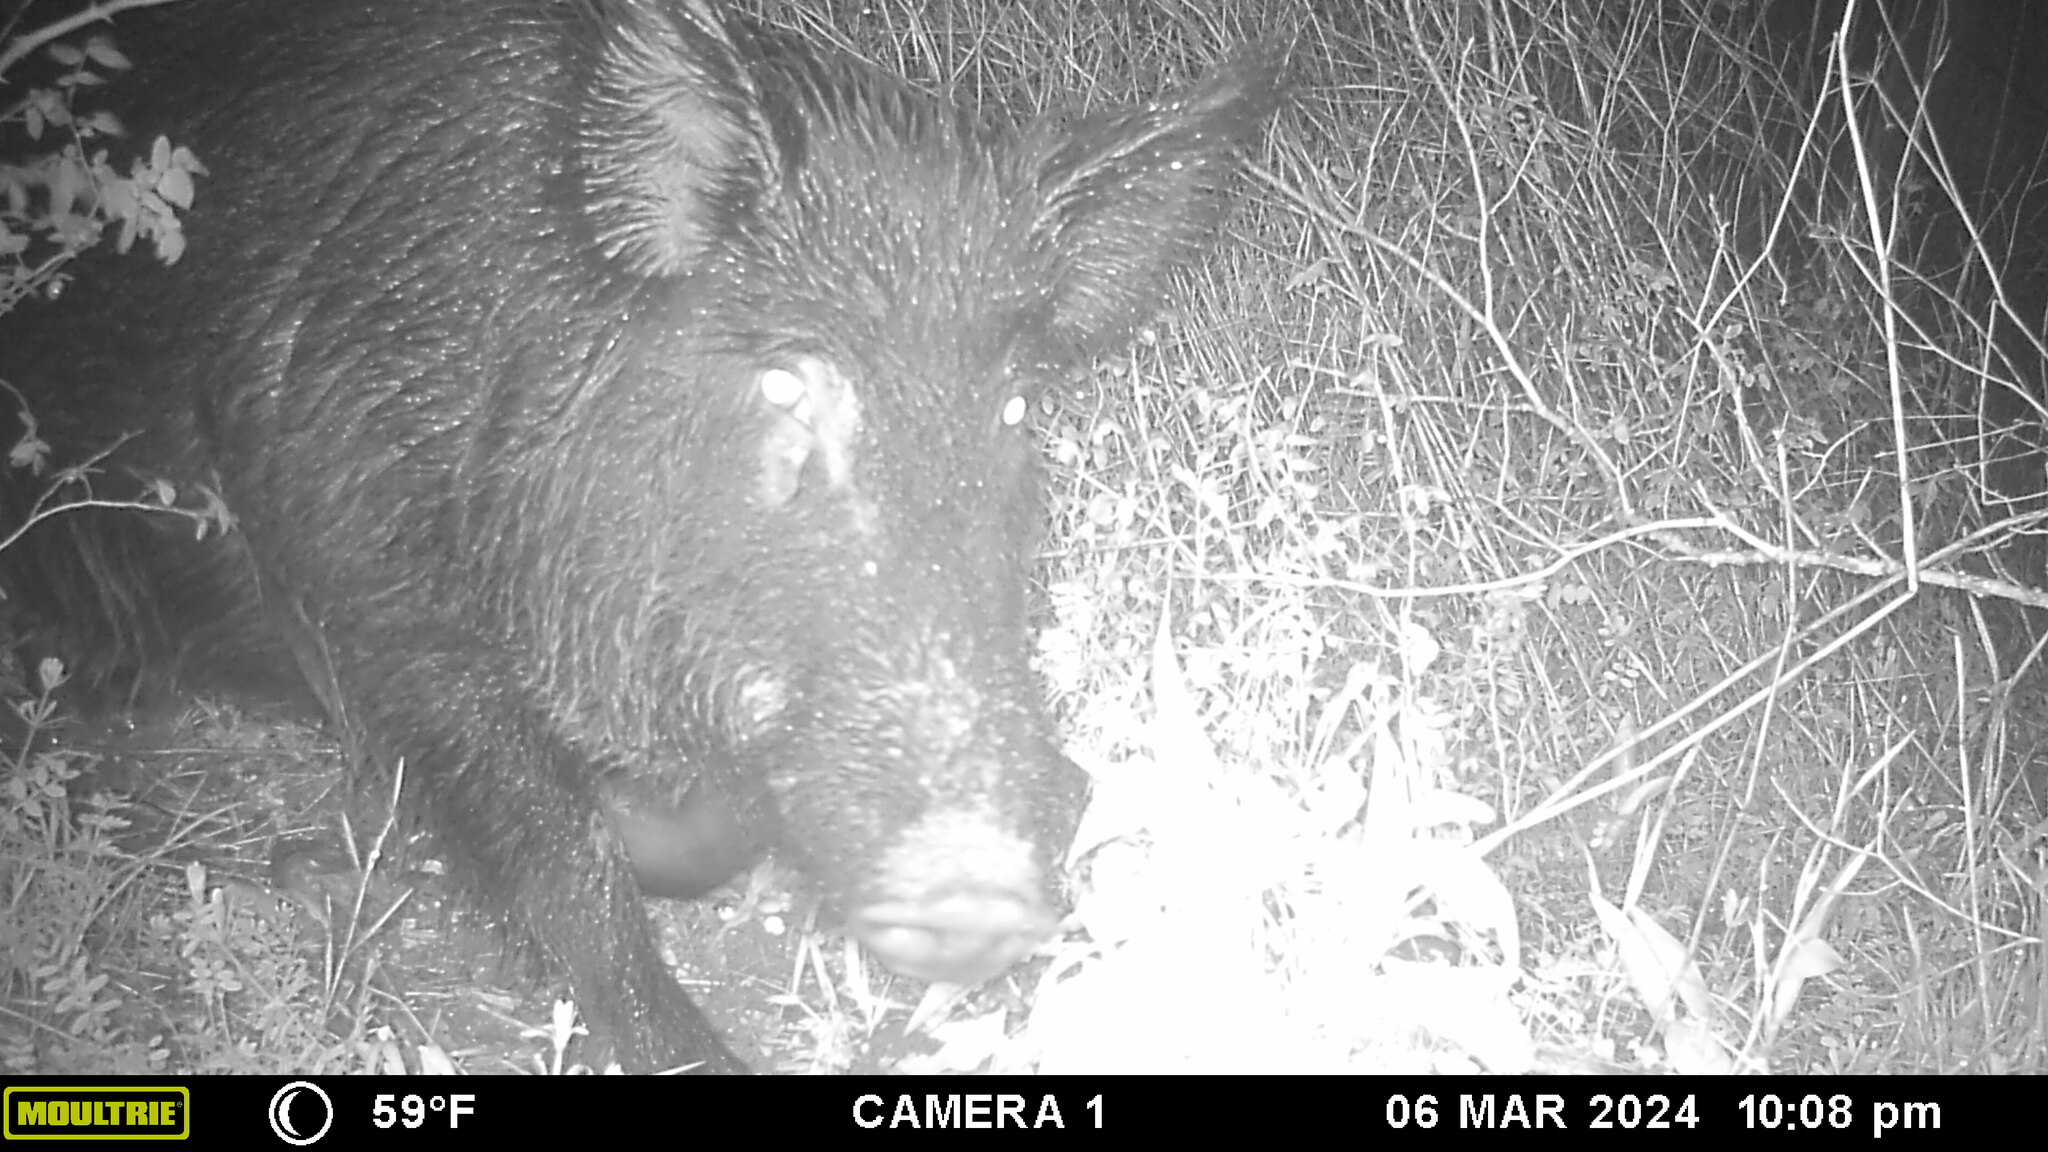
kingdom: Animalia
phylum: Chordata
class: Mammalia
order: Artiodactyla
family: Suidae
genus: Sus
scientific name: Sus scrofa
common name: Wild boar
